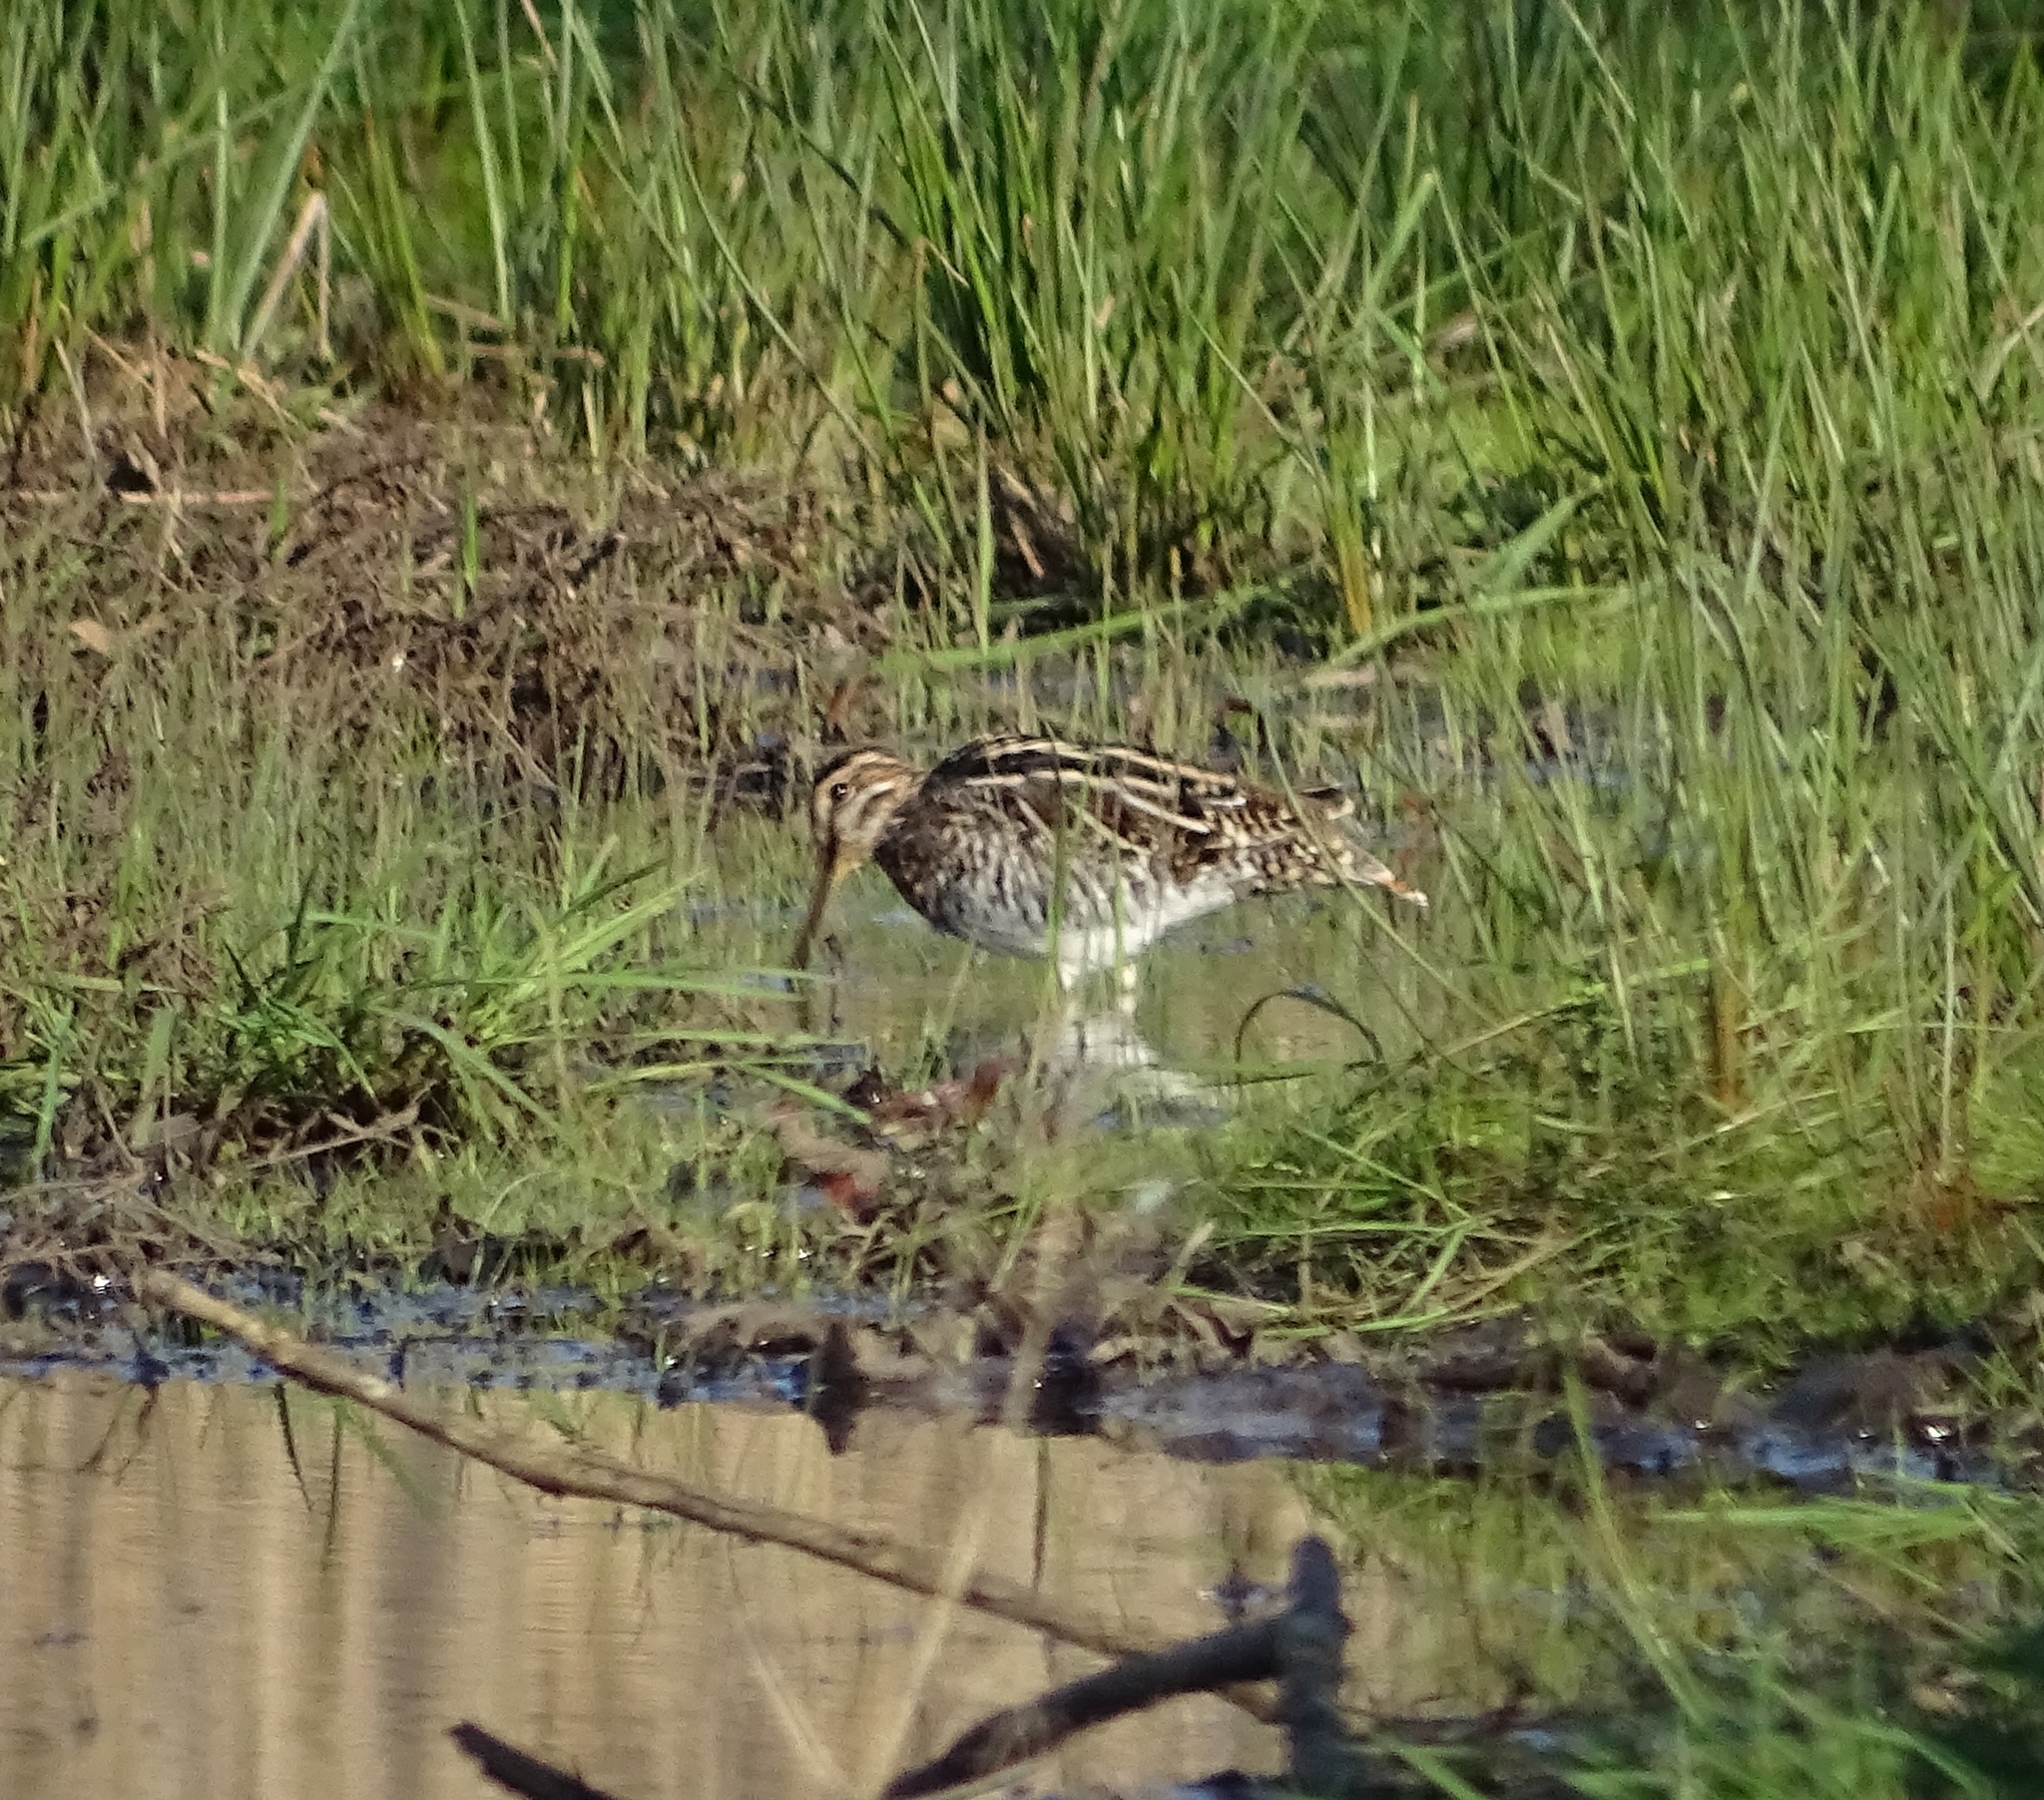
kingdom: Animalia
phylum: Chordata
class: Aves
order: Charadriiformes
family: Scolopacidae
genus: Gallinago
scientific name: Gallinago delicata
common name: Wilson's snipe
